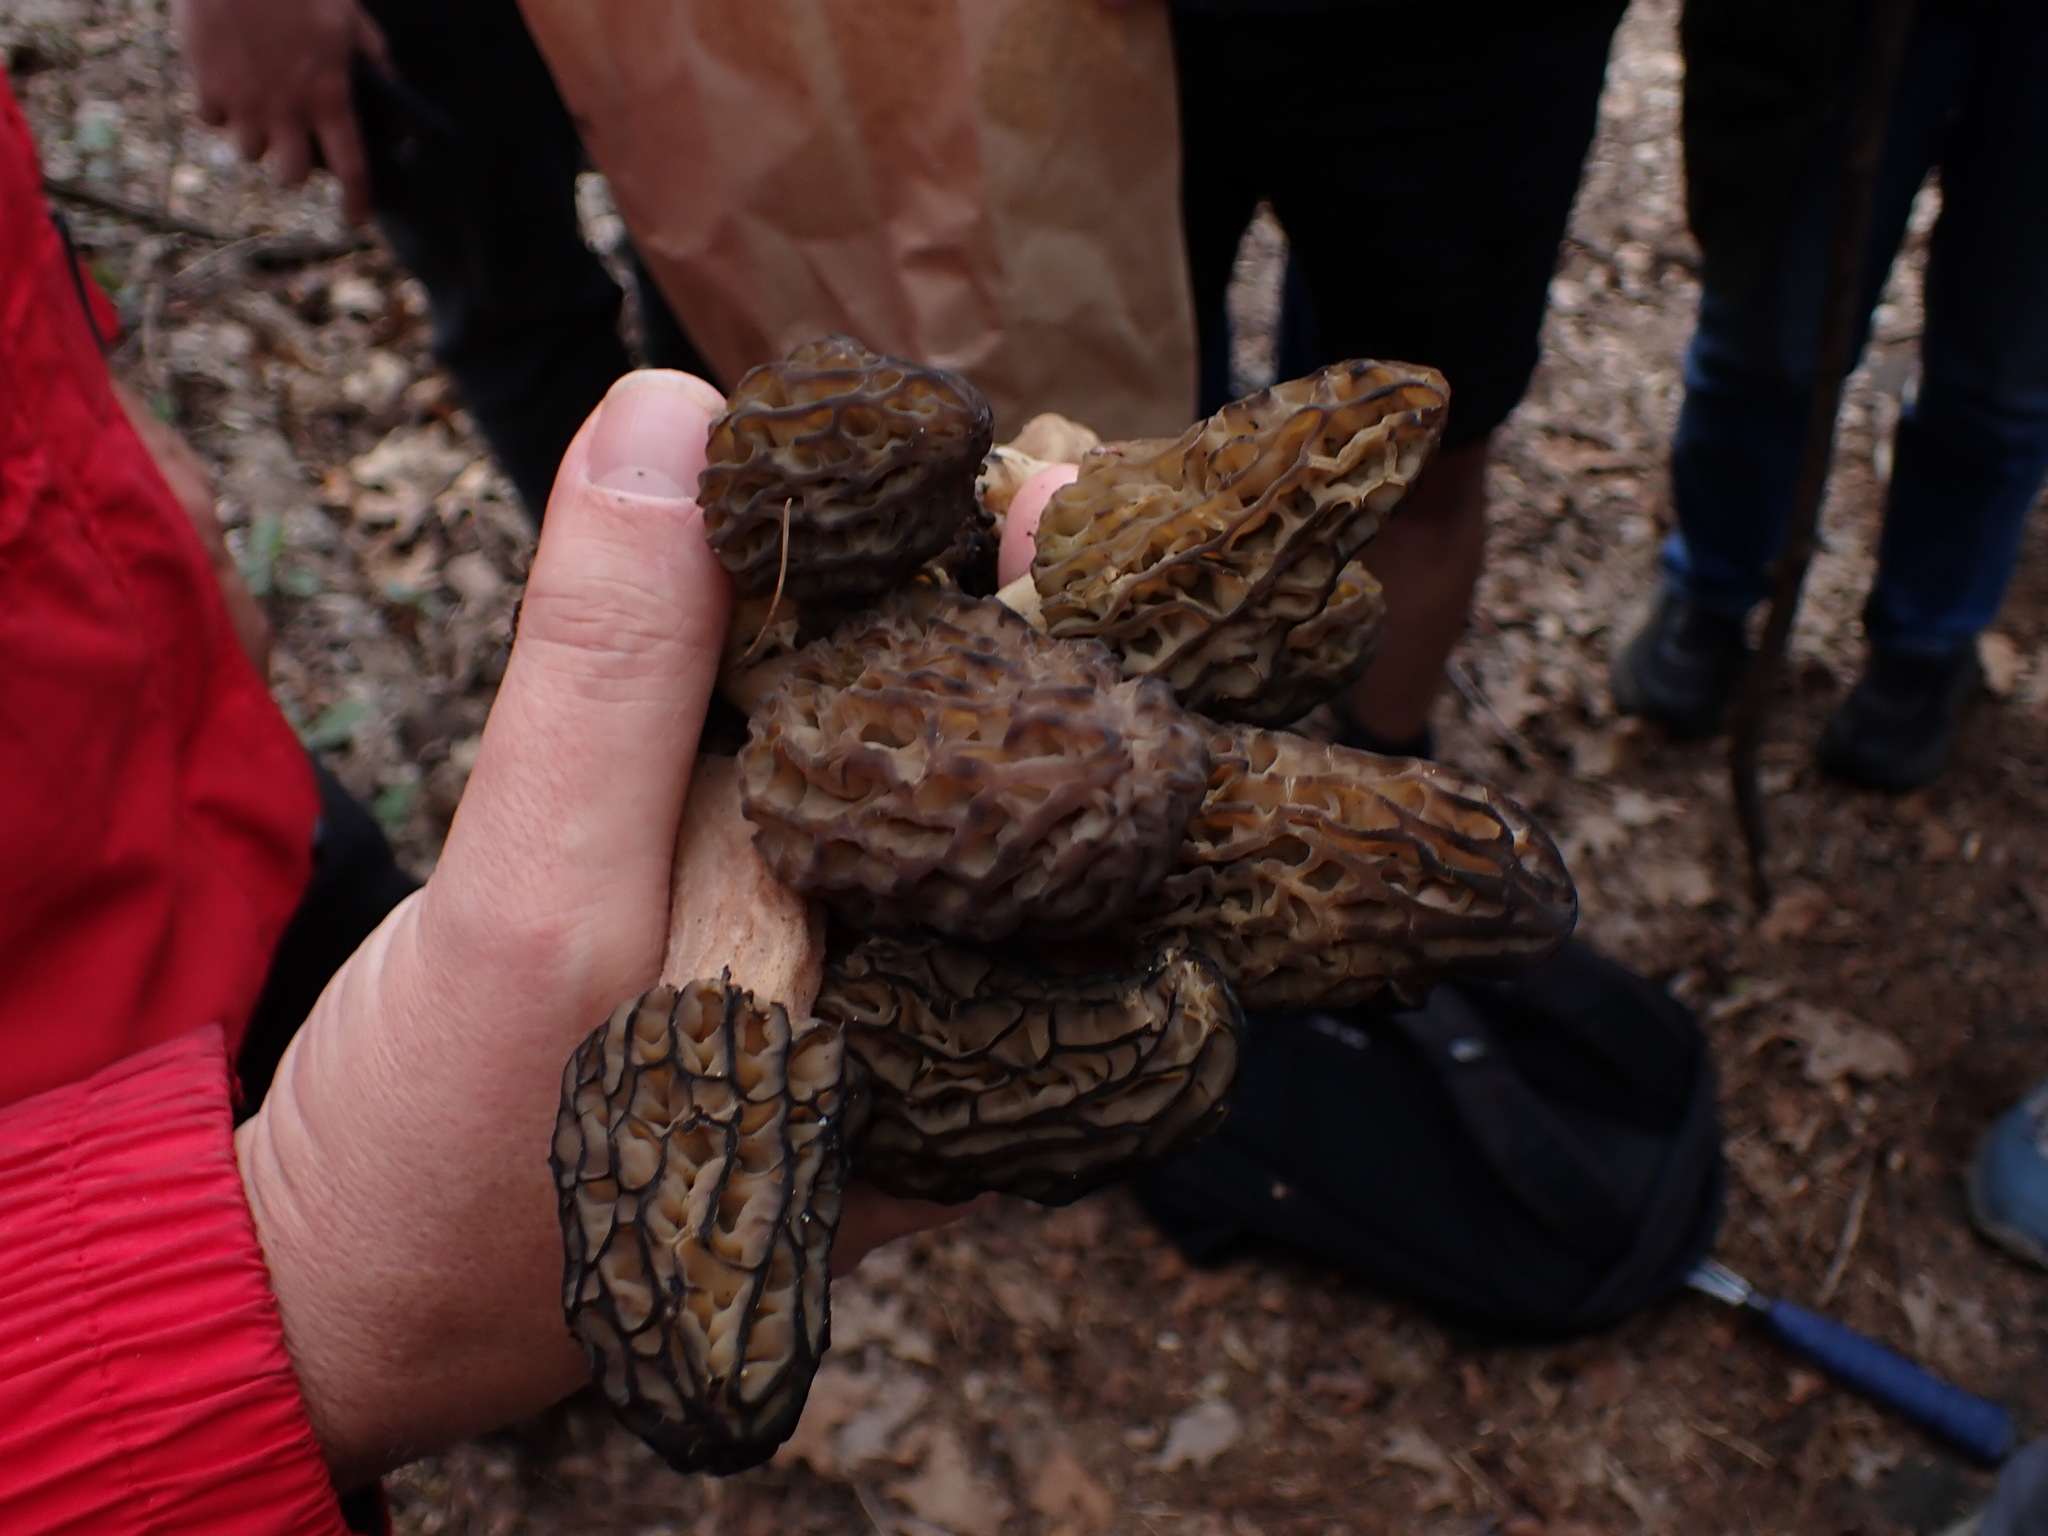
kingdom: Fungi
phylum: Ascomycota
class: Pezizomycetes
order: Pezizales
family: Morchellaceae
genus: Morchella
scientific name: Morchella angusticeps
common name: Black morel
